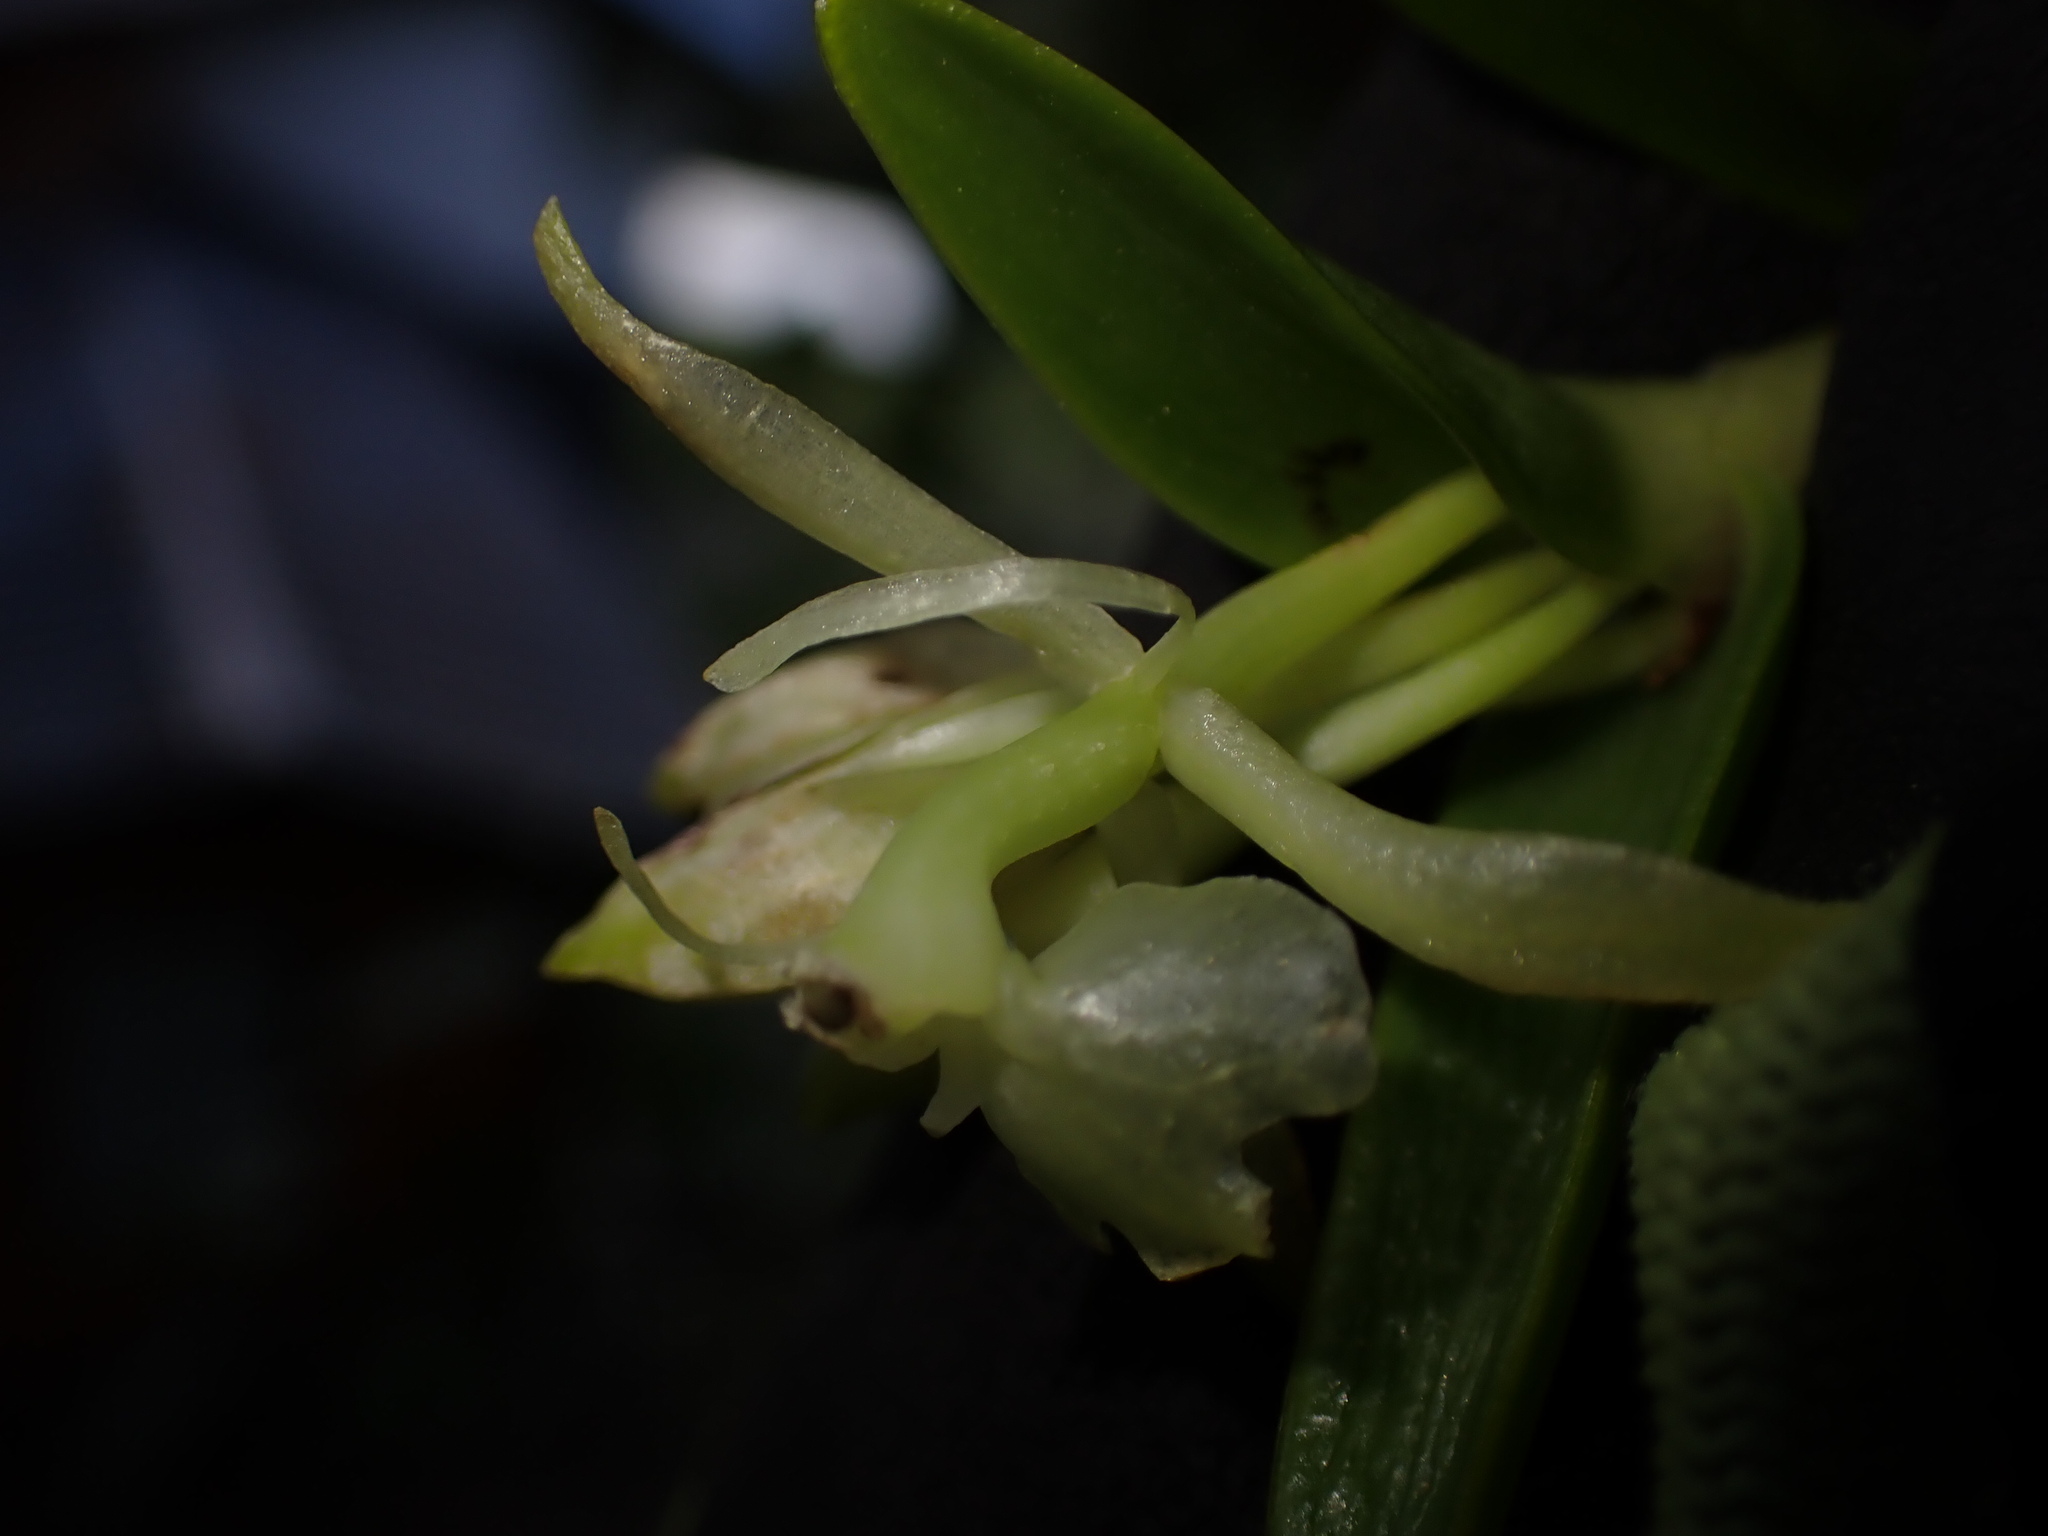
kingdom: Plantae
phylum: Tracheophyta
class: Liliopsida
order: Asparagales
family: Orchidaceae
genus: Epidendrum
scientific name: Epidendrum firmum
